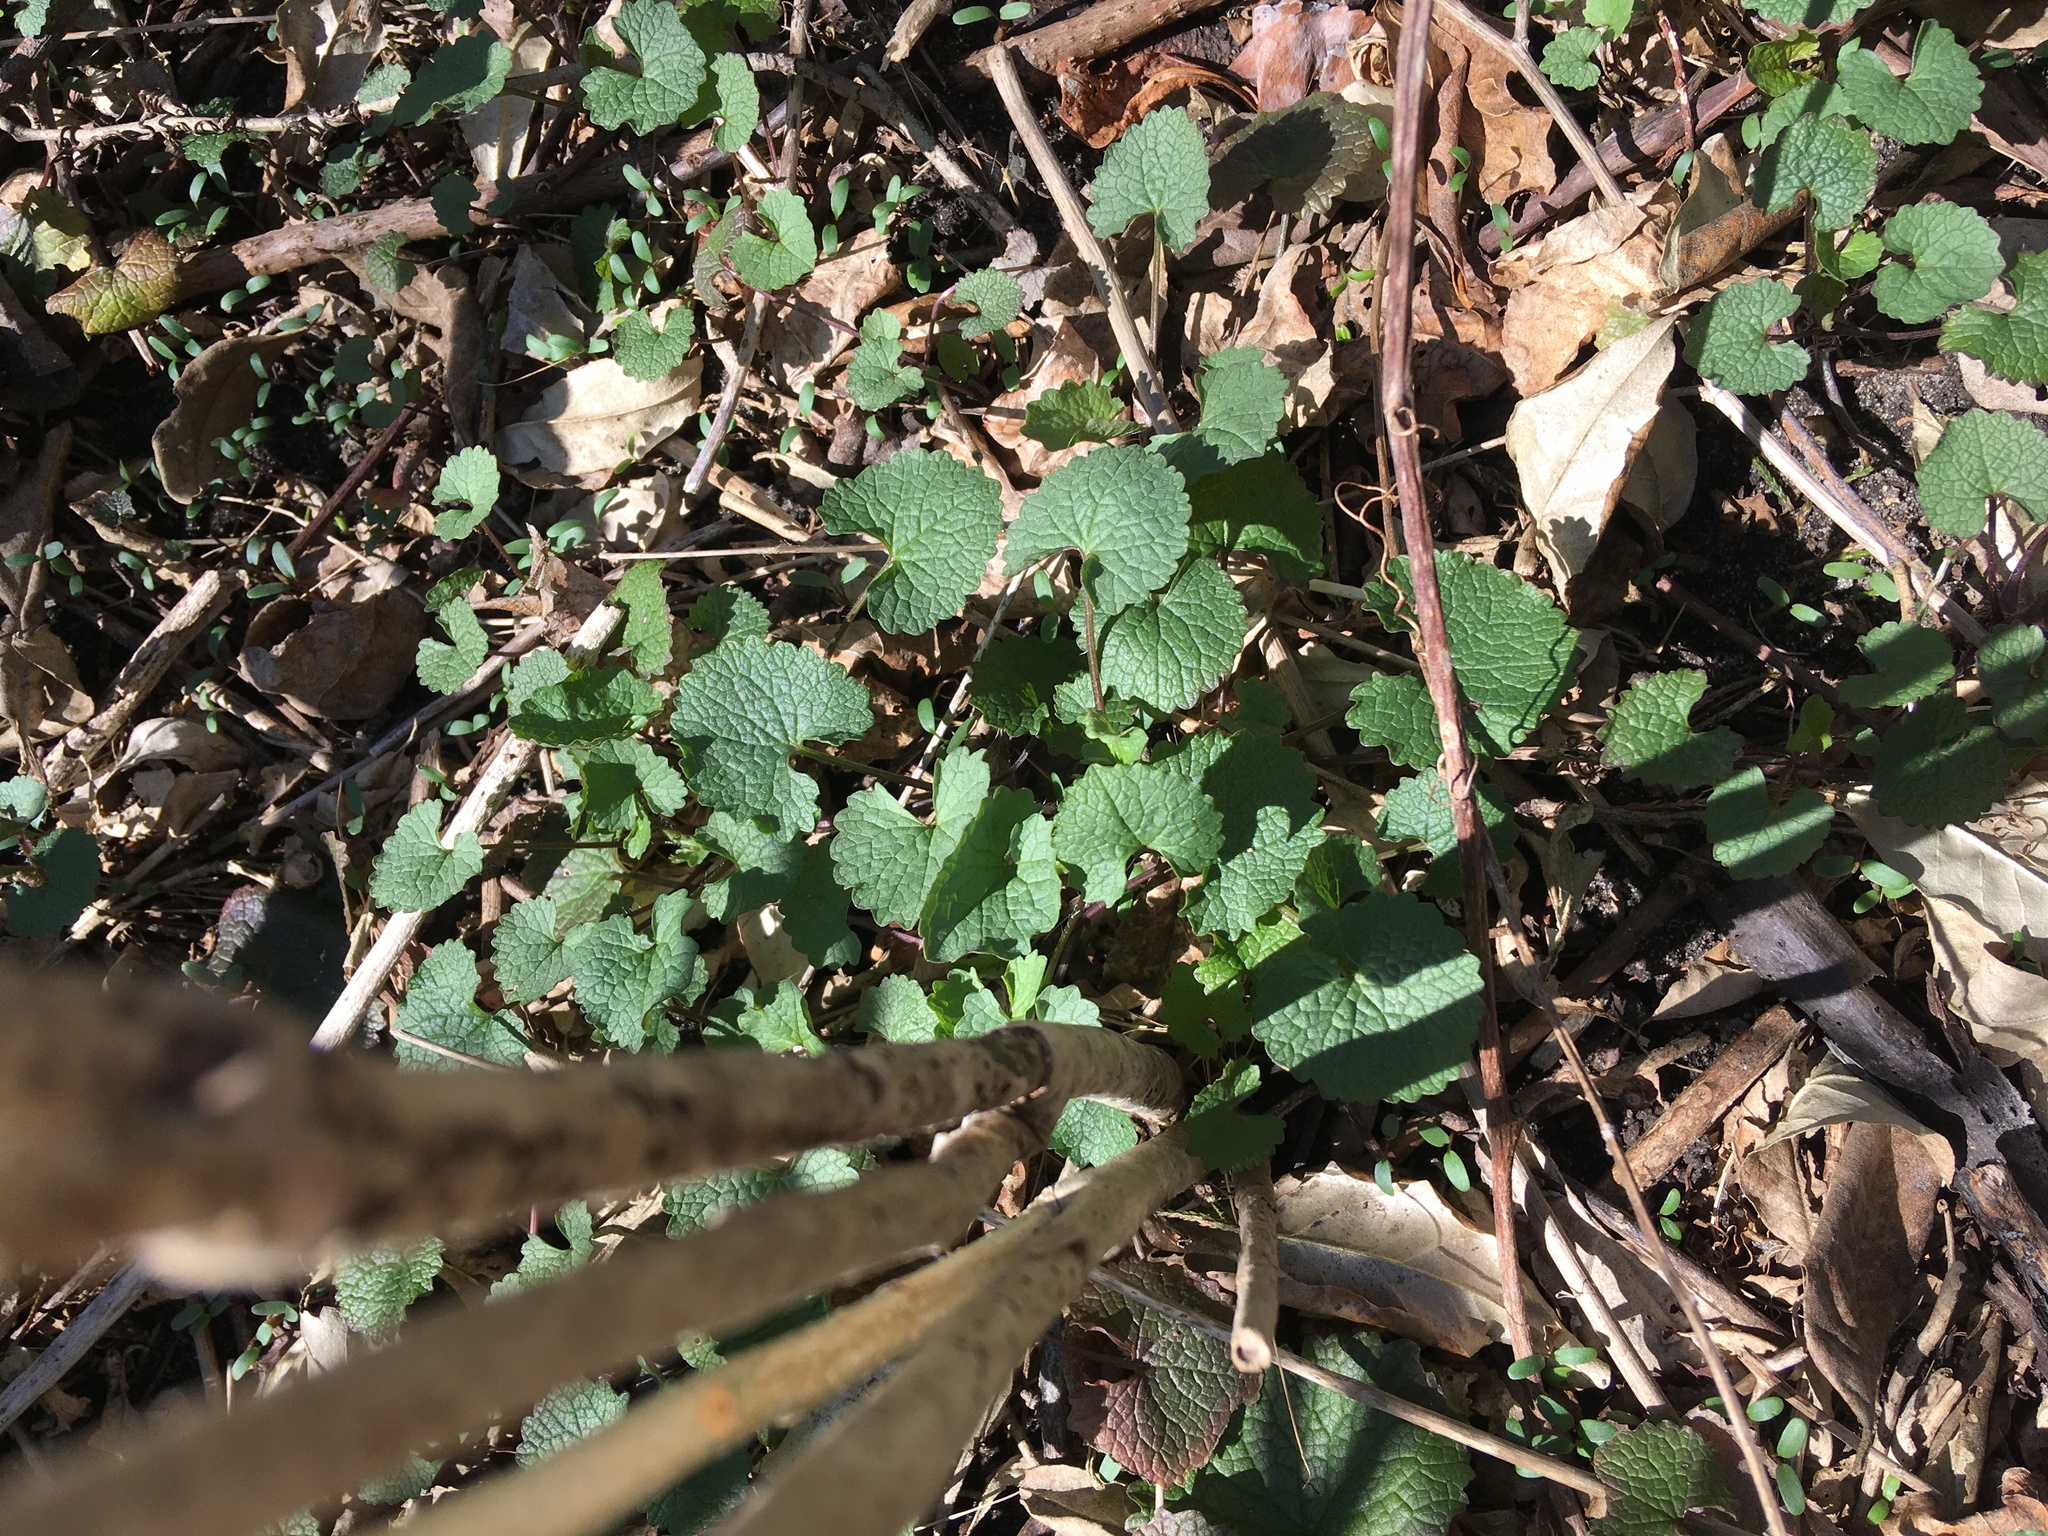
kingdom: Plantae
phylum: Tracheophyta
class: Magnoliopsida
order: Brassicales
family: Brassicaceae
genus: Alliaria
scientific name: Alliaria petiolata
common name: Garlic mustard
